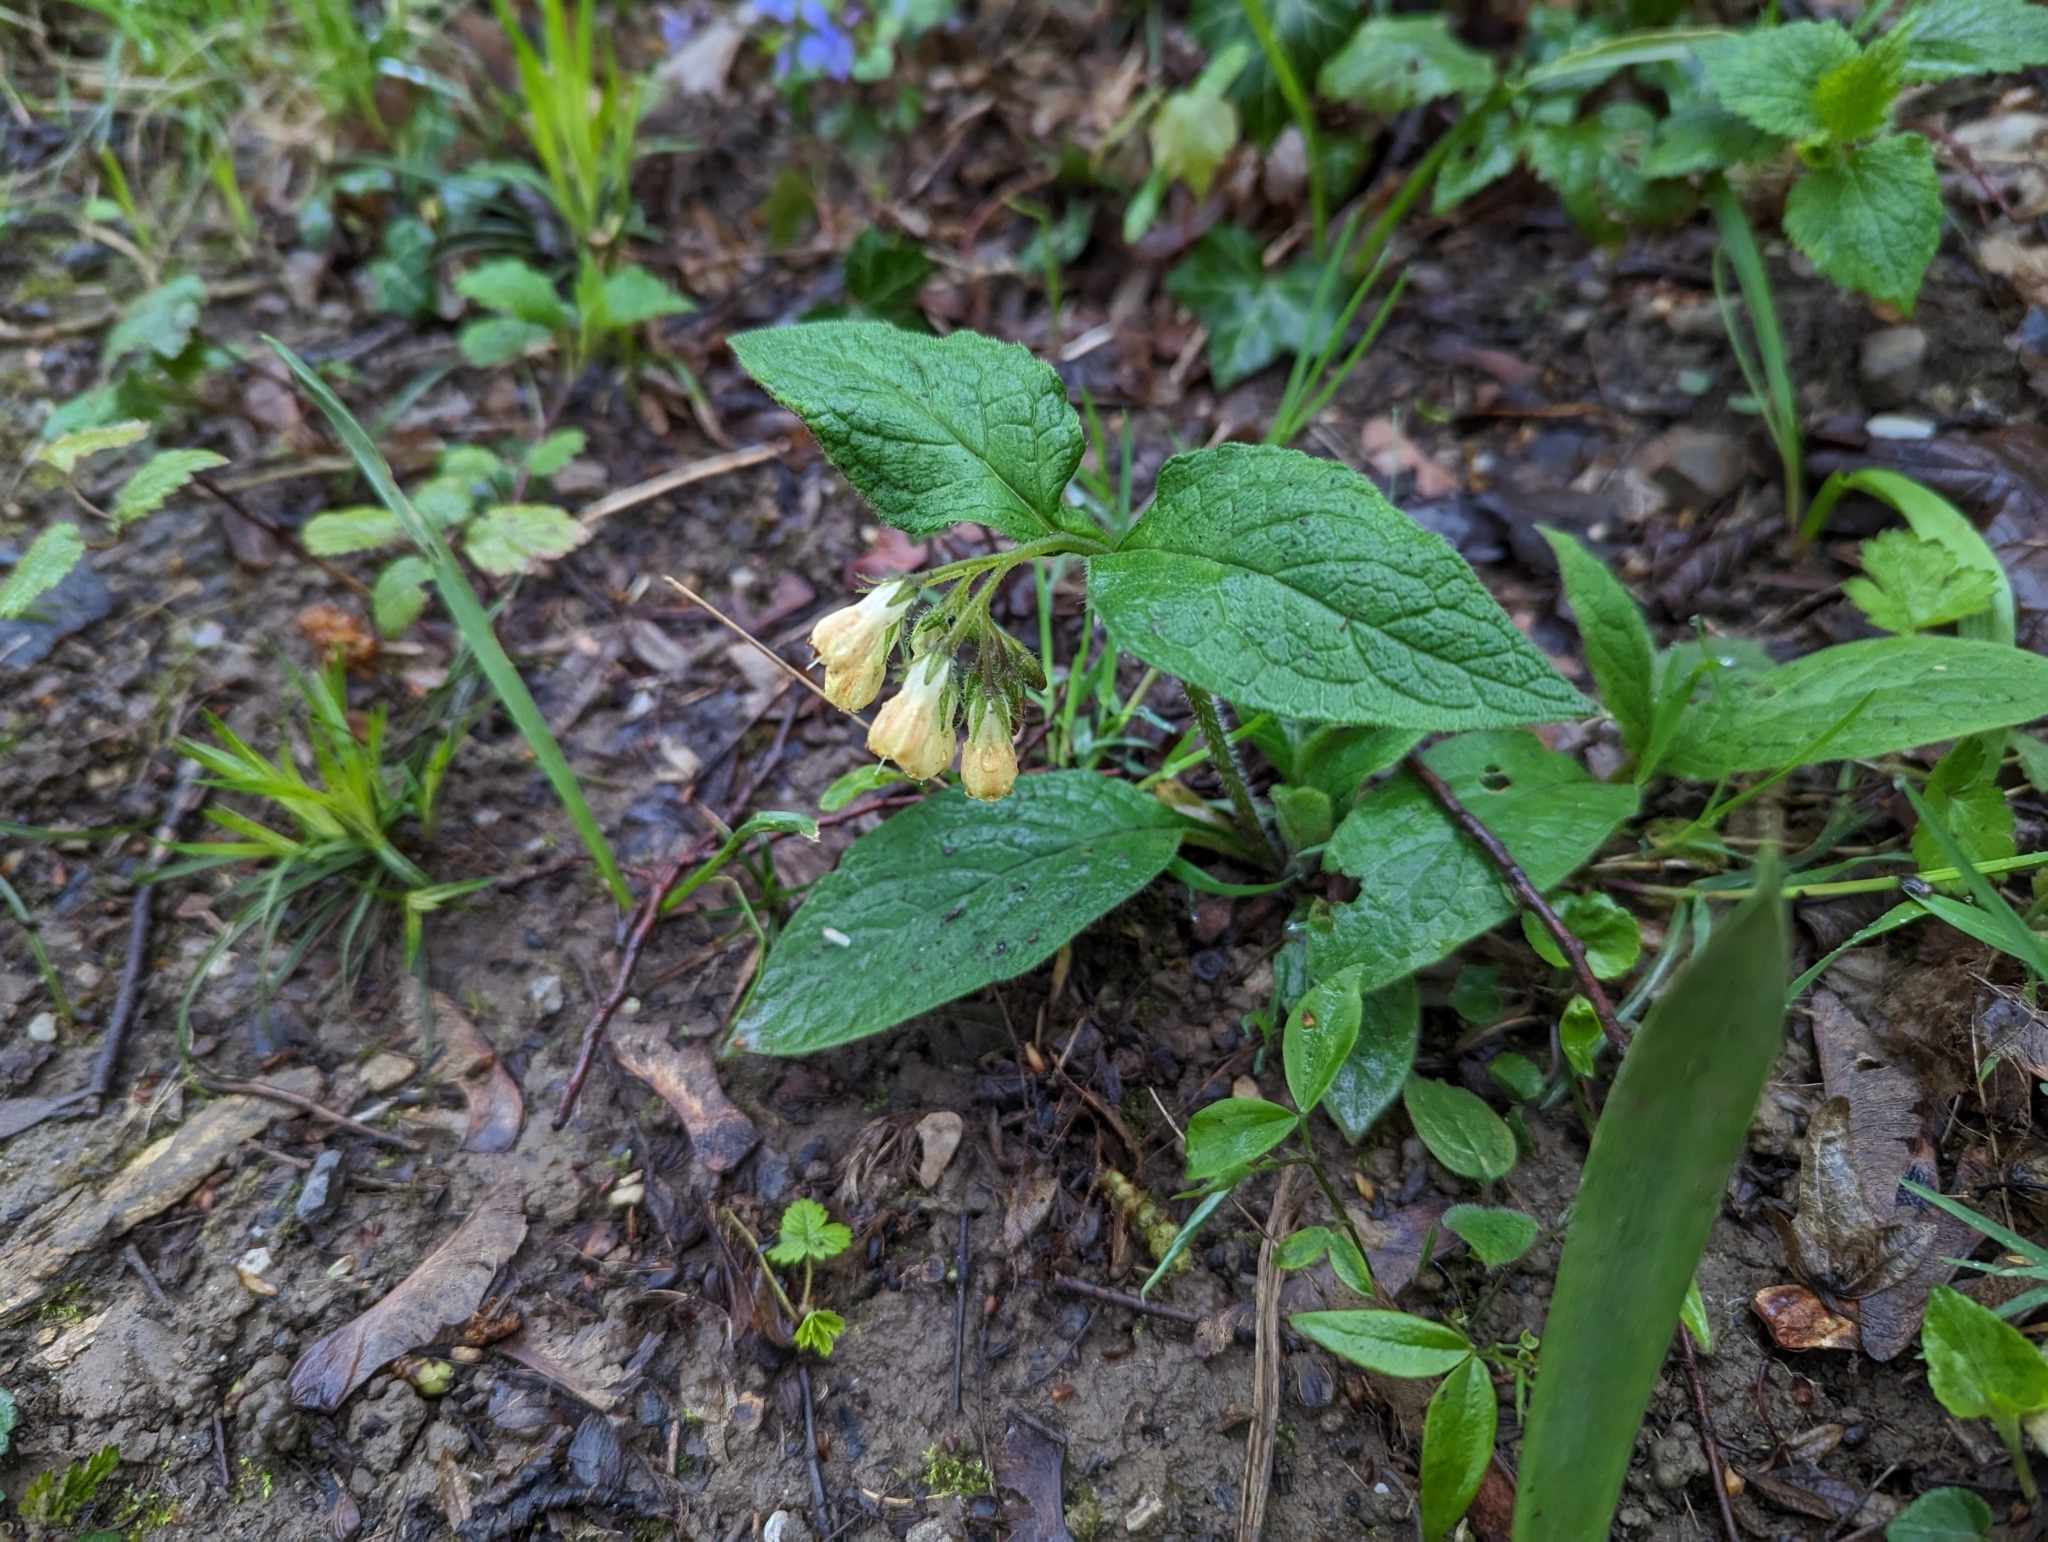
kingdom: Plantae
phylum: Tracheophyta
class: Magnoliopsida
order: Boraginales
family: Boraginaceae
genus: Symphytum
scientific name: Symphytum tuberosum
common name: Tuberous comfrey
